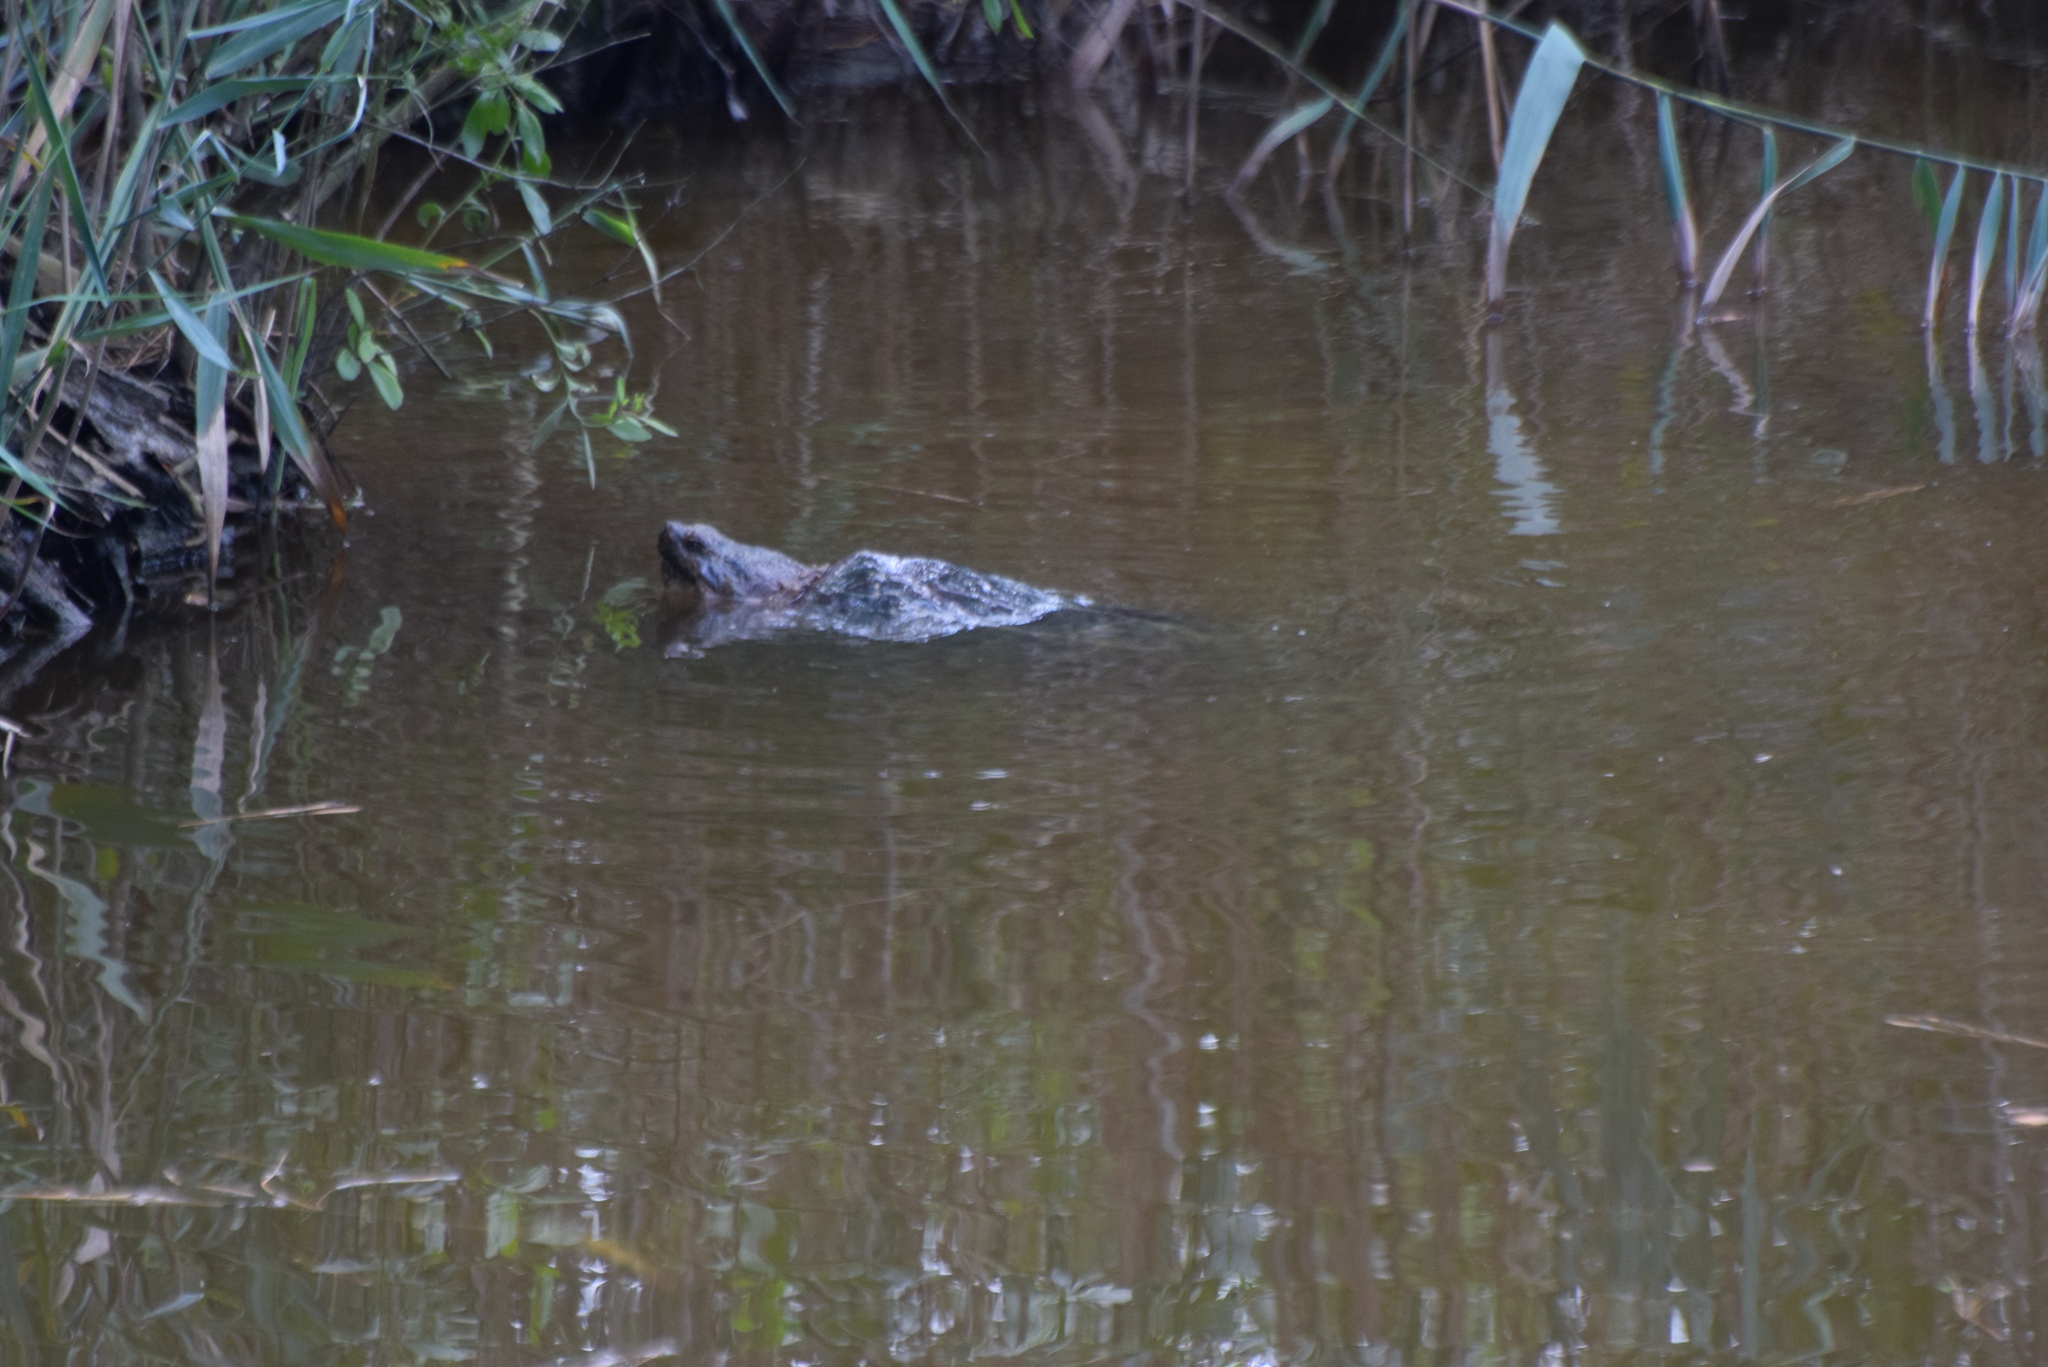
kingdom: Animalia
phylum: Chordata
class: Testudines
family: Chelydridae
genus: Chelydra
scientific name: Chelydra serpentina
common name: Common snapping turtle
